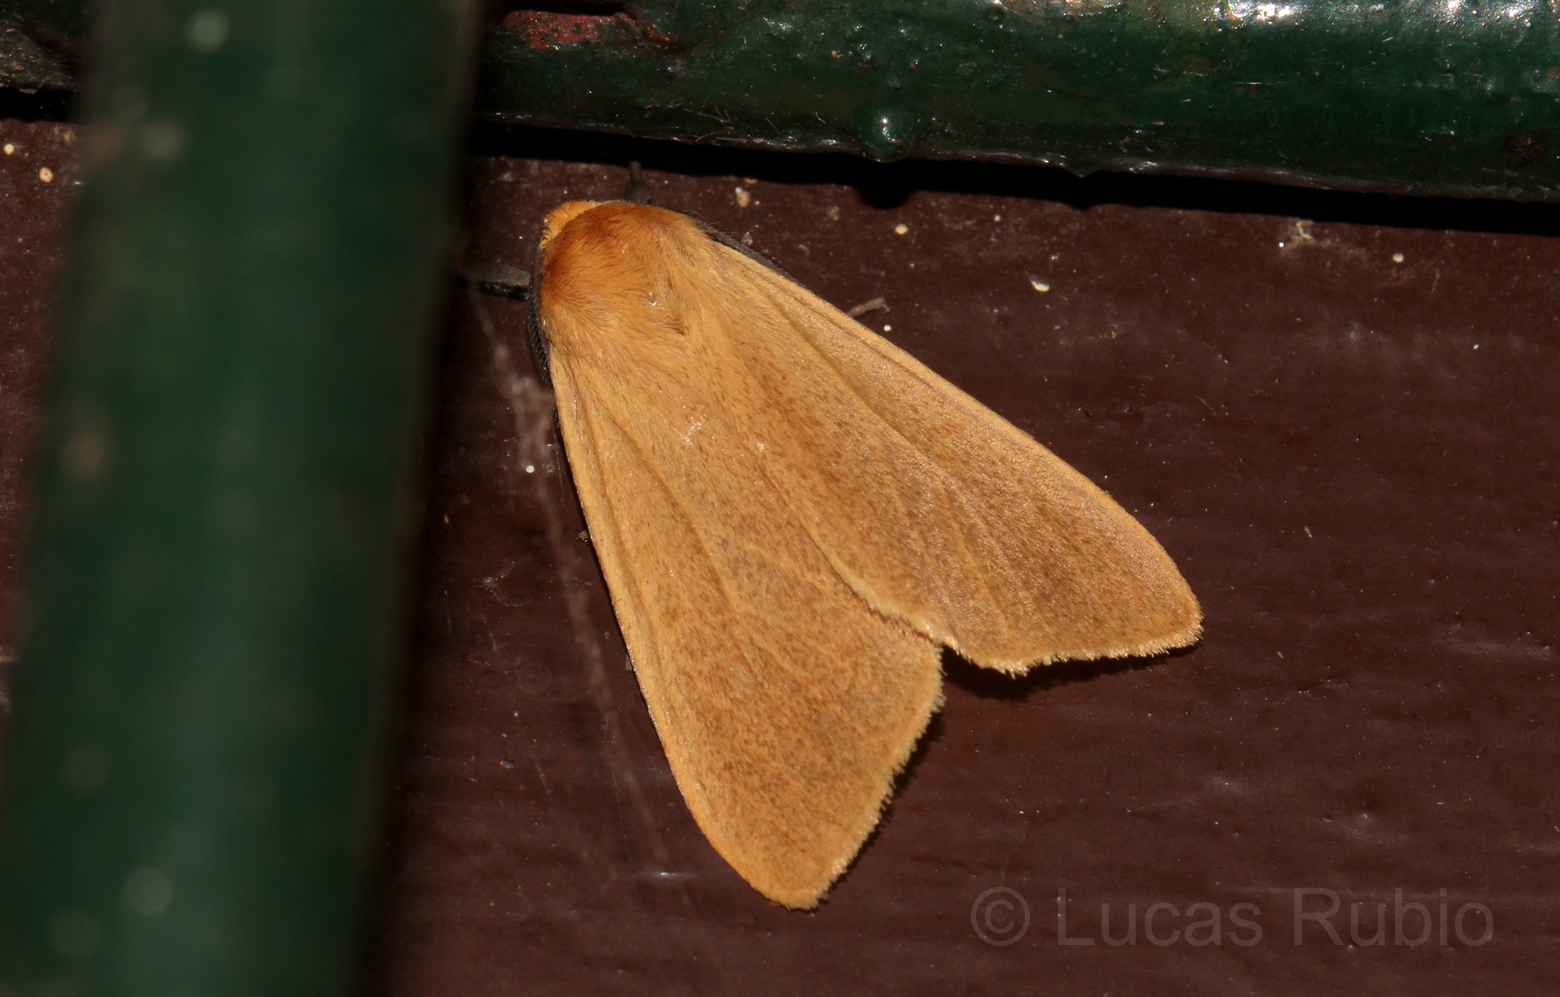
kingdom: Animalia
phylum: Arthropoda
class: Insecta
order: Lepidoptera
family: Erebidae
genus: Pareuchaetes
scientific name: Pareuchaetes aurata
